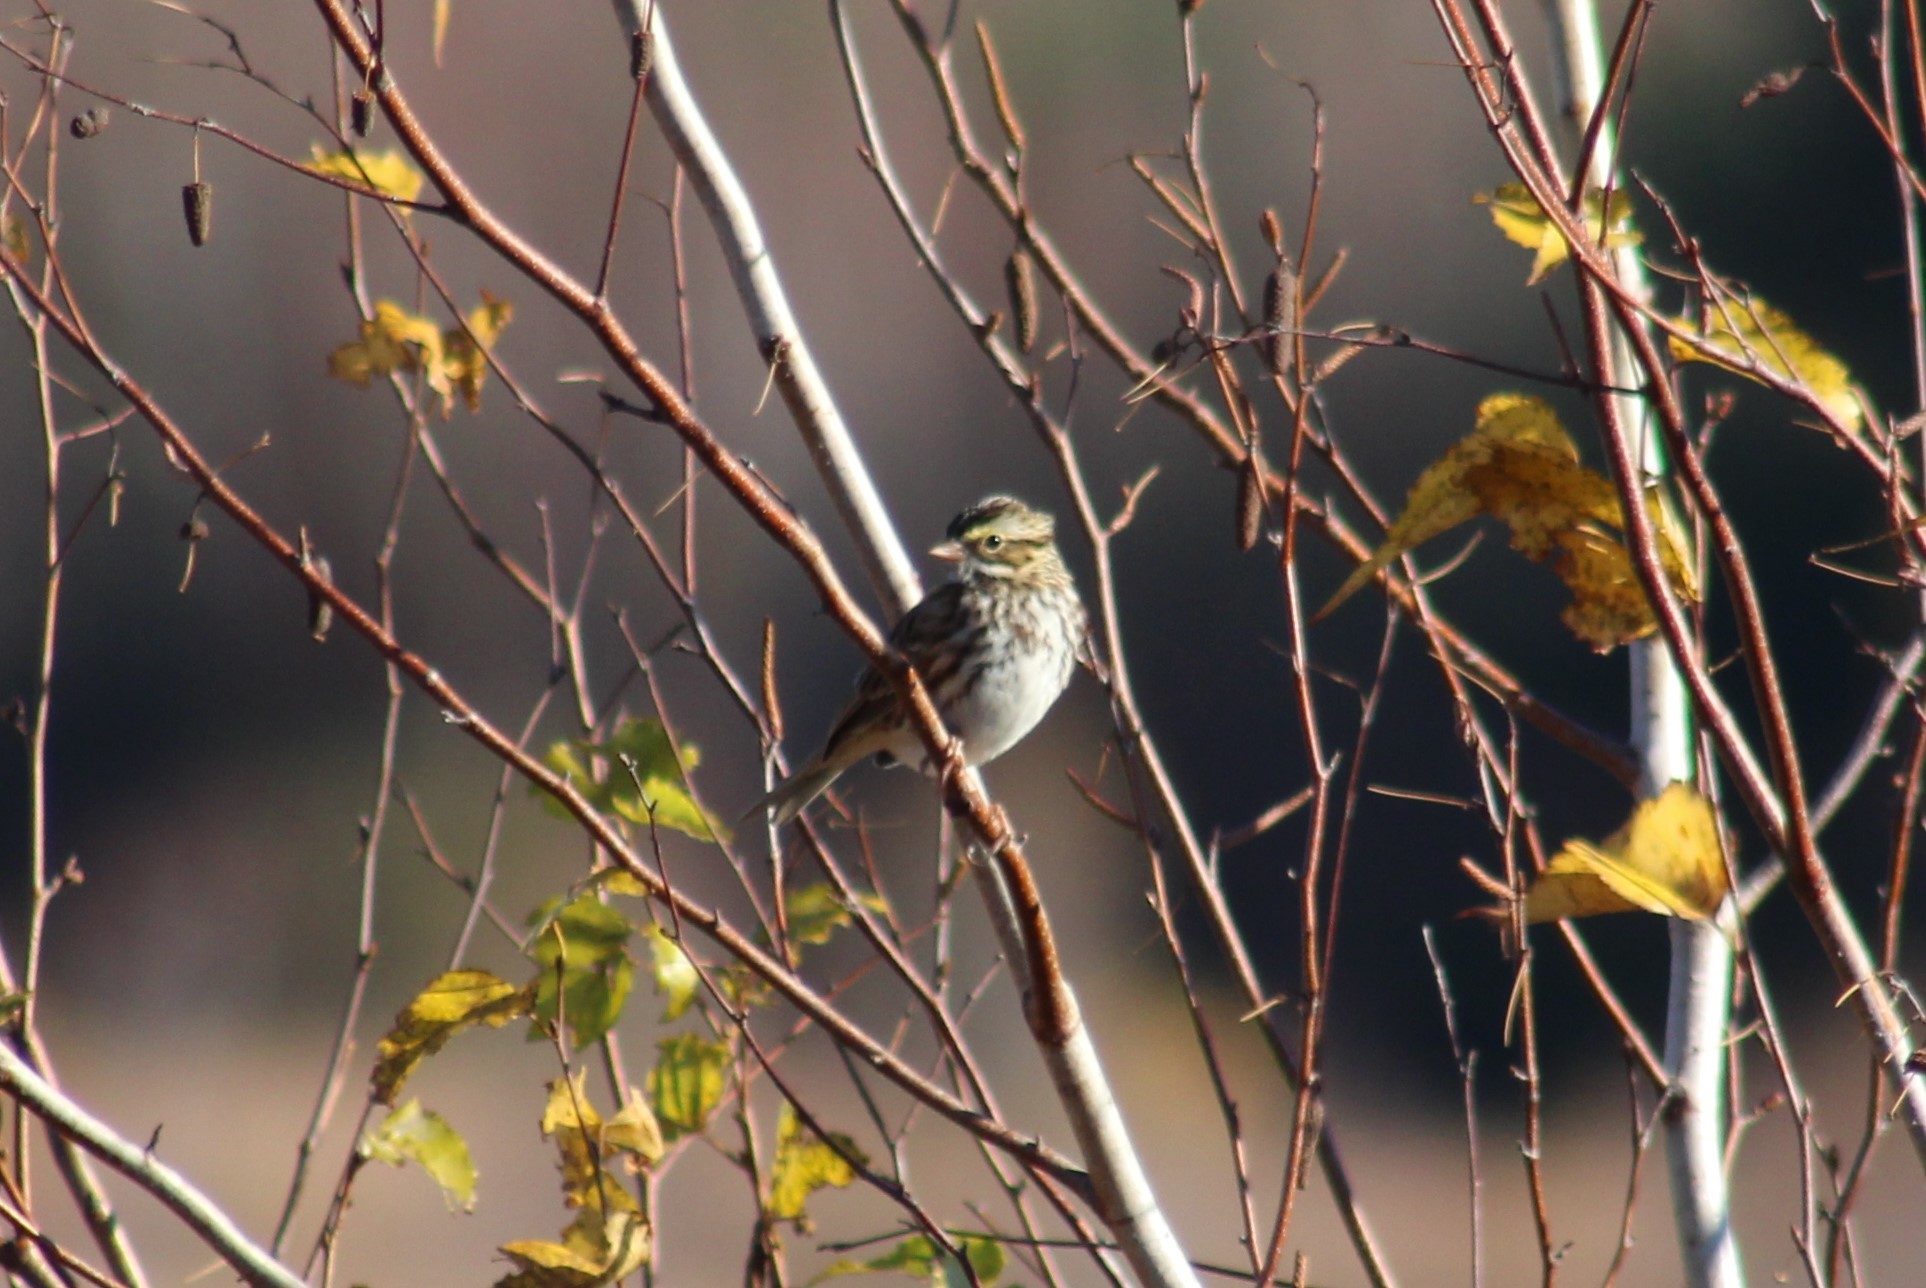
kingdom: Animalia
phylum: Chordata
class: Aves
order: Passeriformes
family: Passerellidae
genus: Passerculus
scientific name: Passerculus sandwichensis
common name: Savannah sparrow
